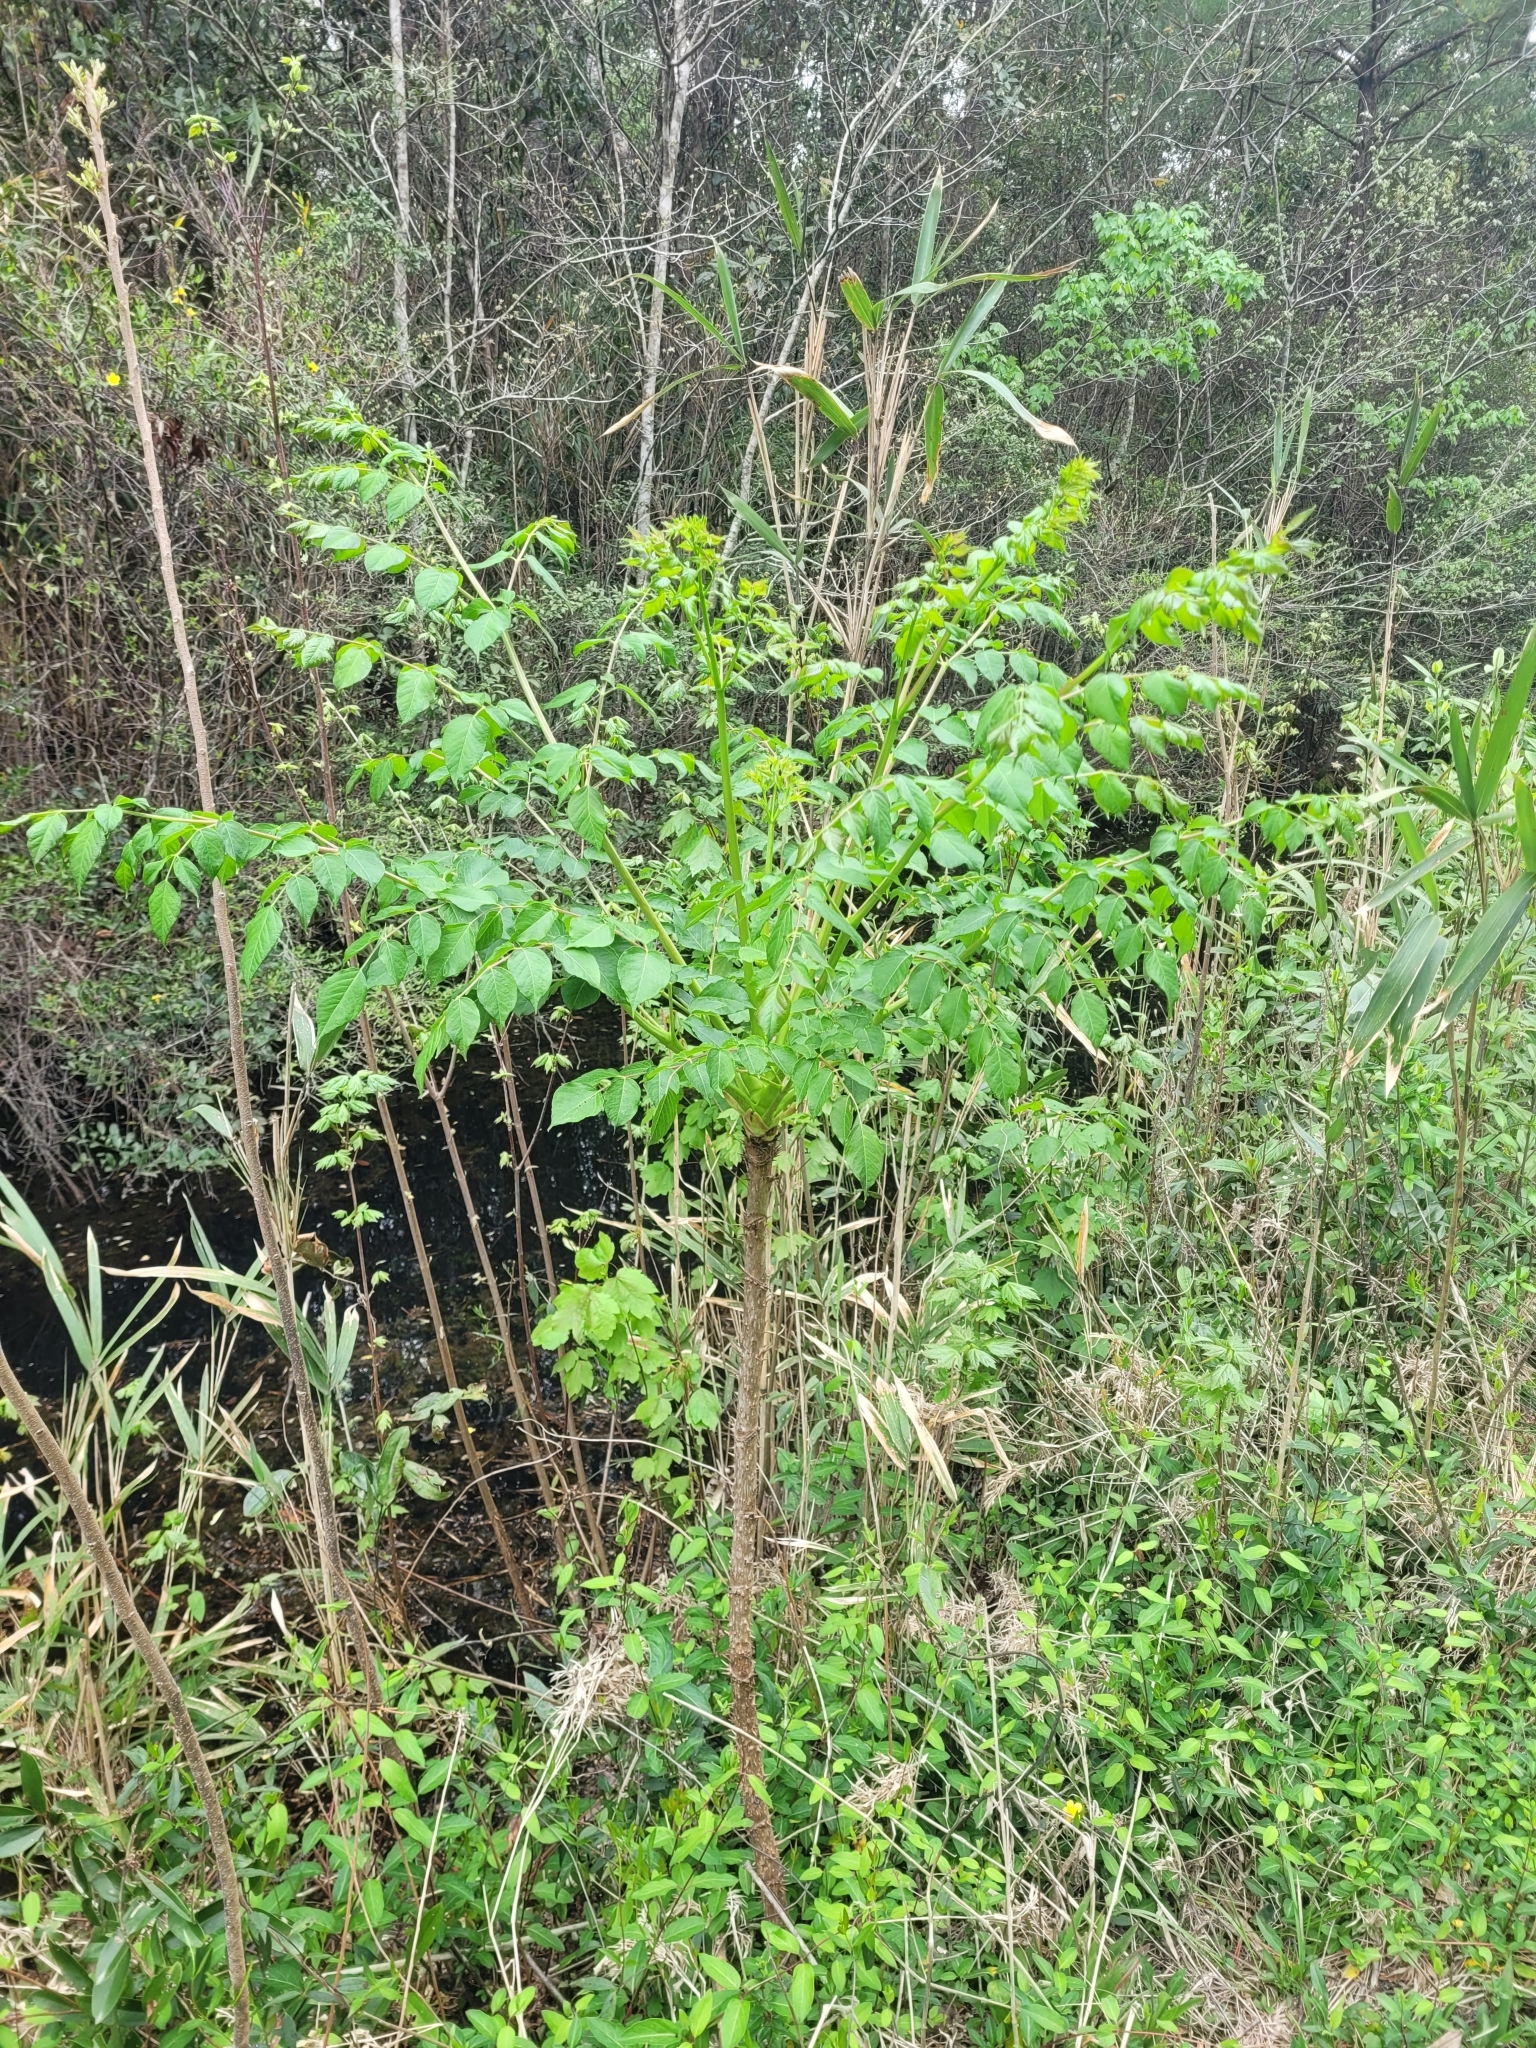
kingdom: Plantae
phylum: Tracheophyta
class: Magnoliopsida
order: Apiales
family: Araliaceae
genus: Aralia
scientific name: Aralia spinosa
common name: Hercules'-club
